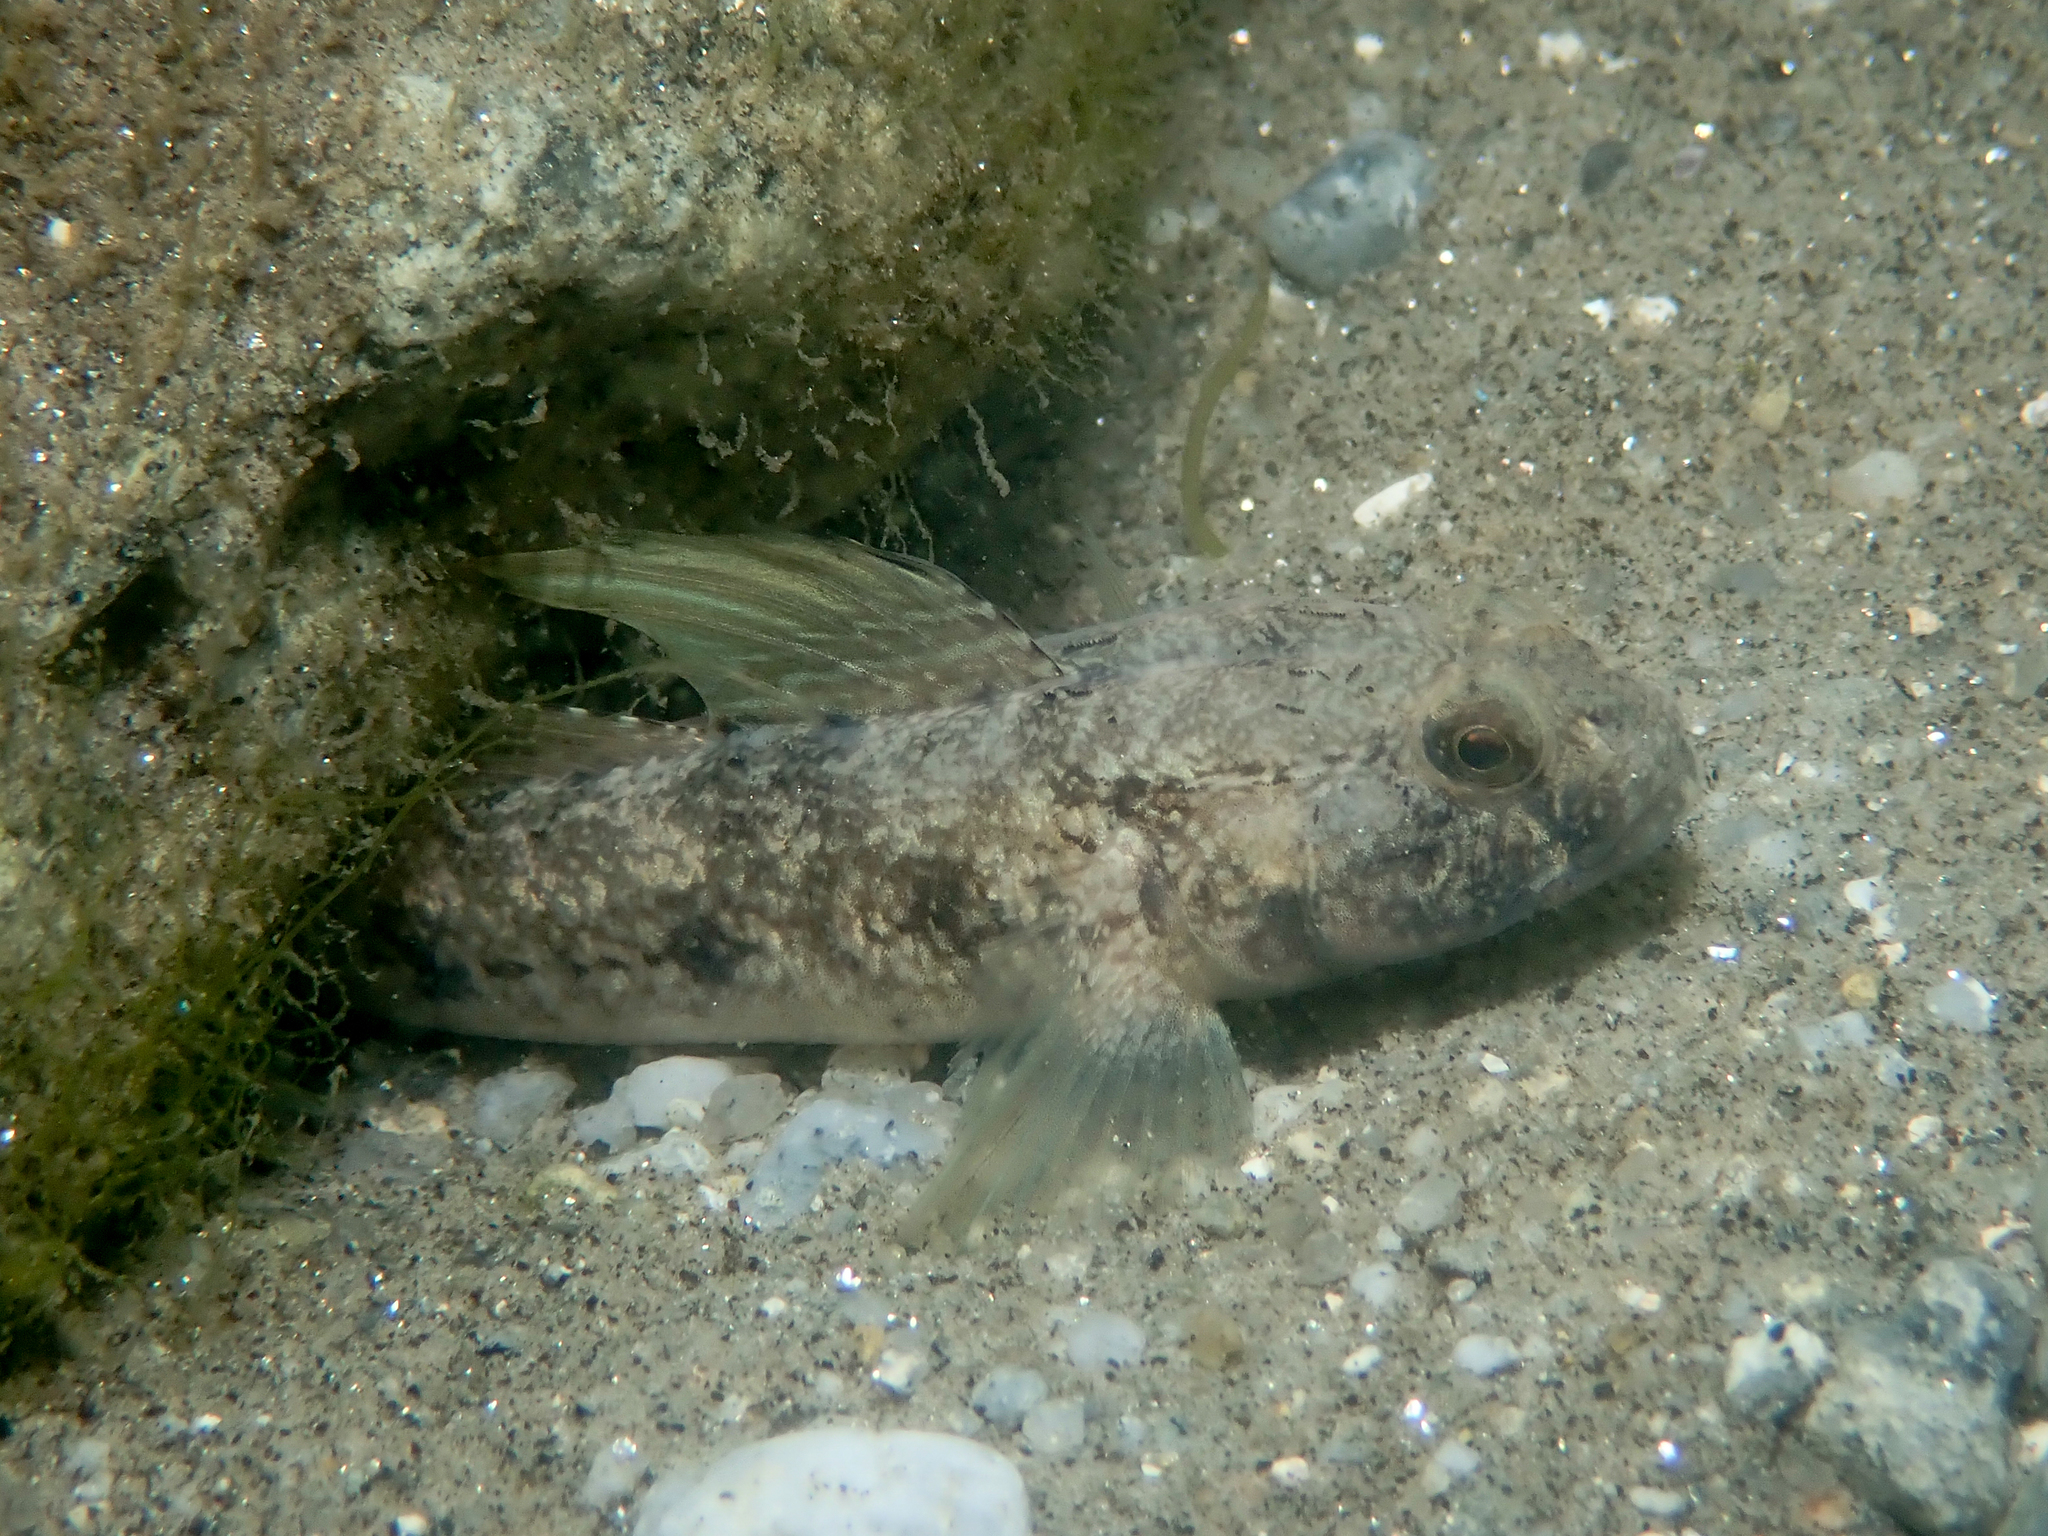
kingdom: Animalia
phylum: Chordata
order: Perciformes
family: Gobiidae
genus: Gobius
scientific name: Gobius niger
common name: Black goby
